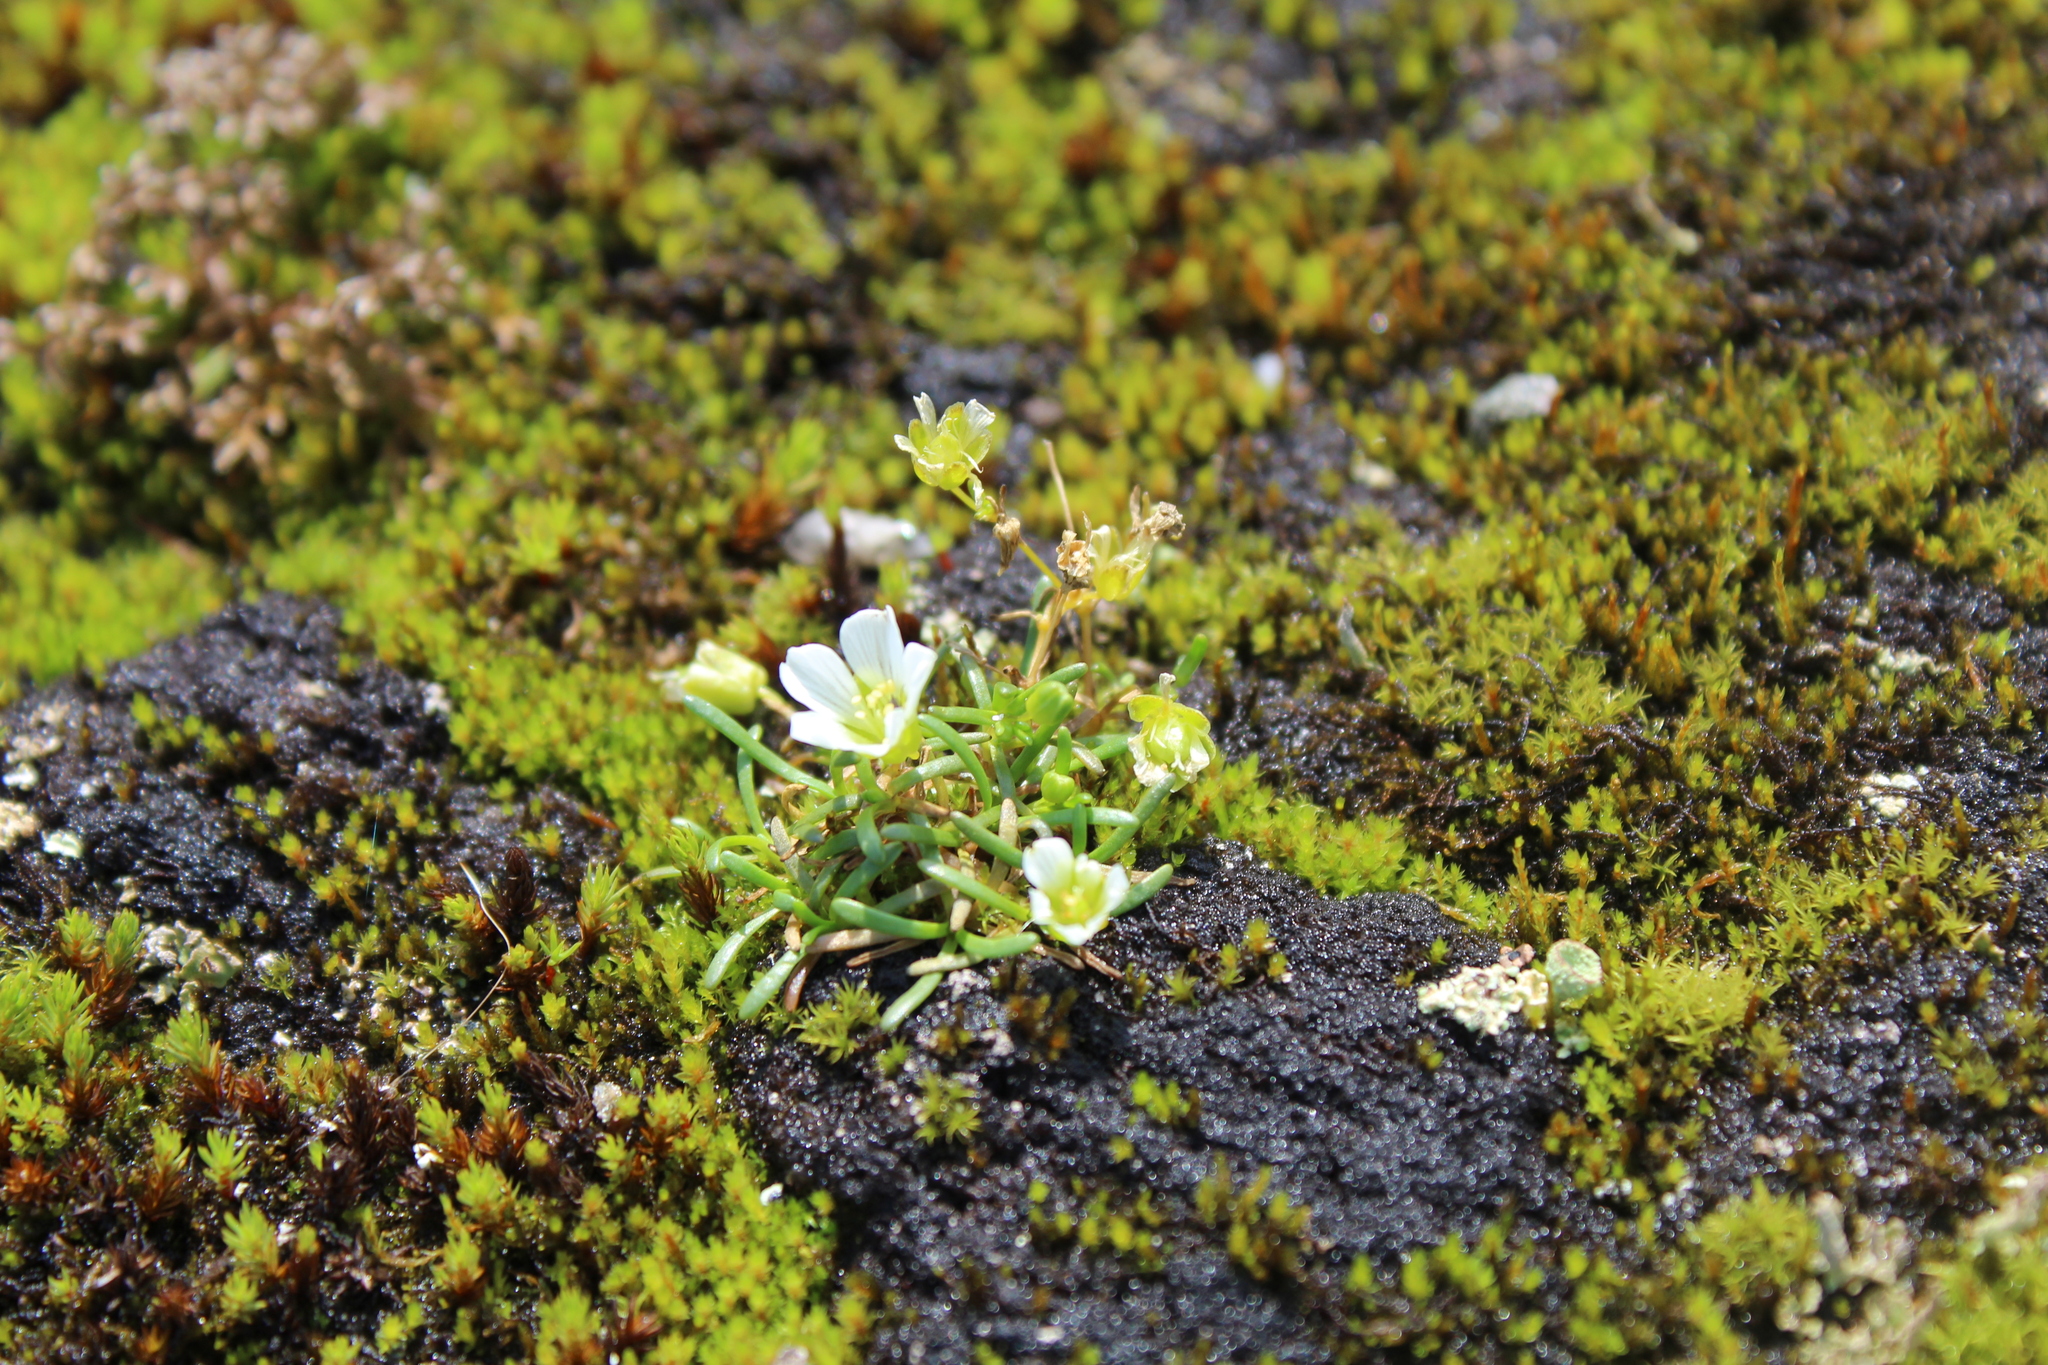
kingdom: Plantae
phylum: Tracheophyta
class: Magnoliopsida
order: Caryophyllales
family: Caryophyllaceae
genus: Geocarpon
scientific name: Geocarpon groenlandicum
